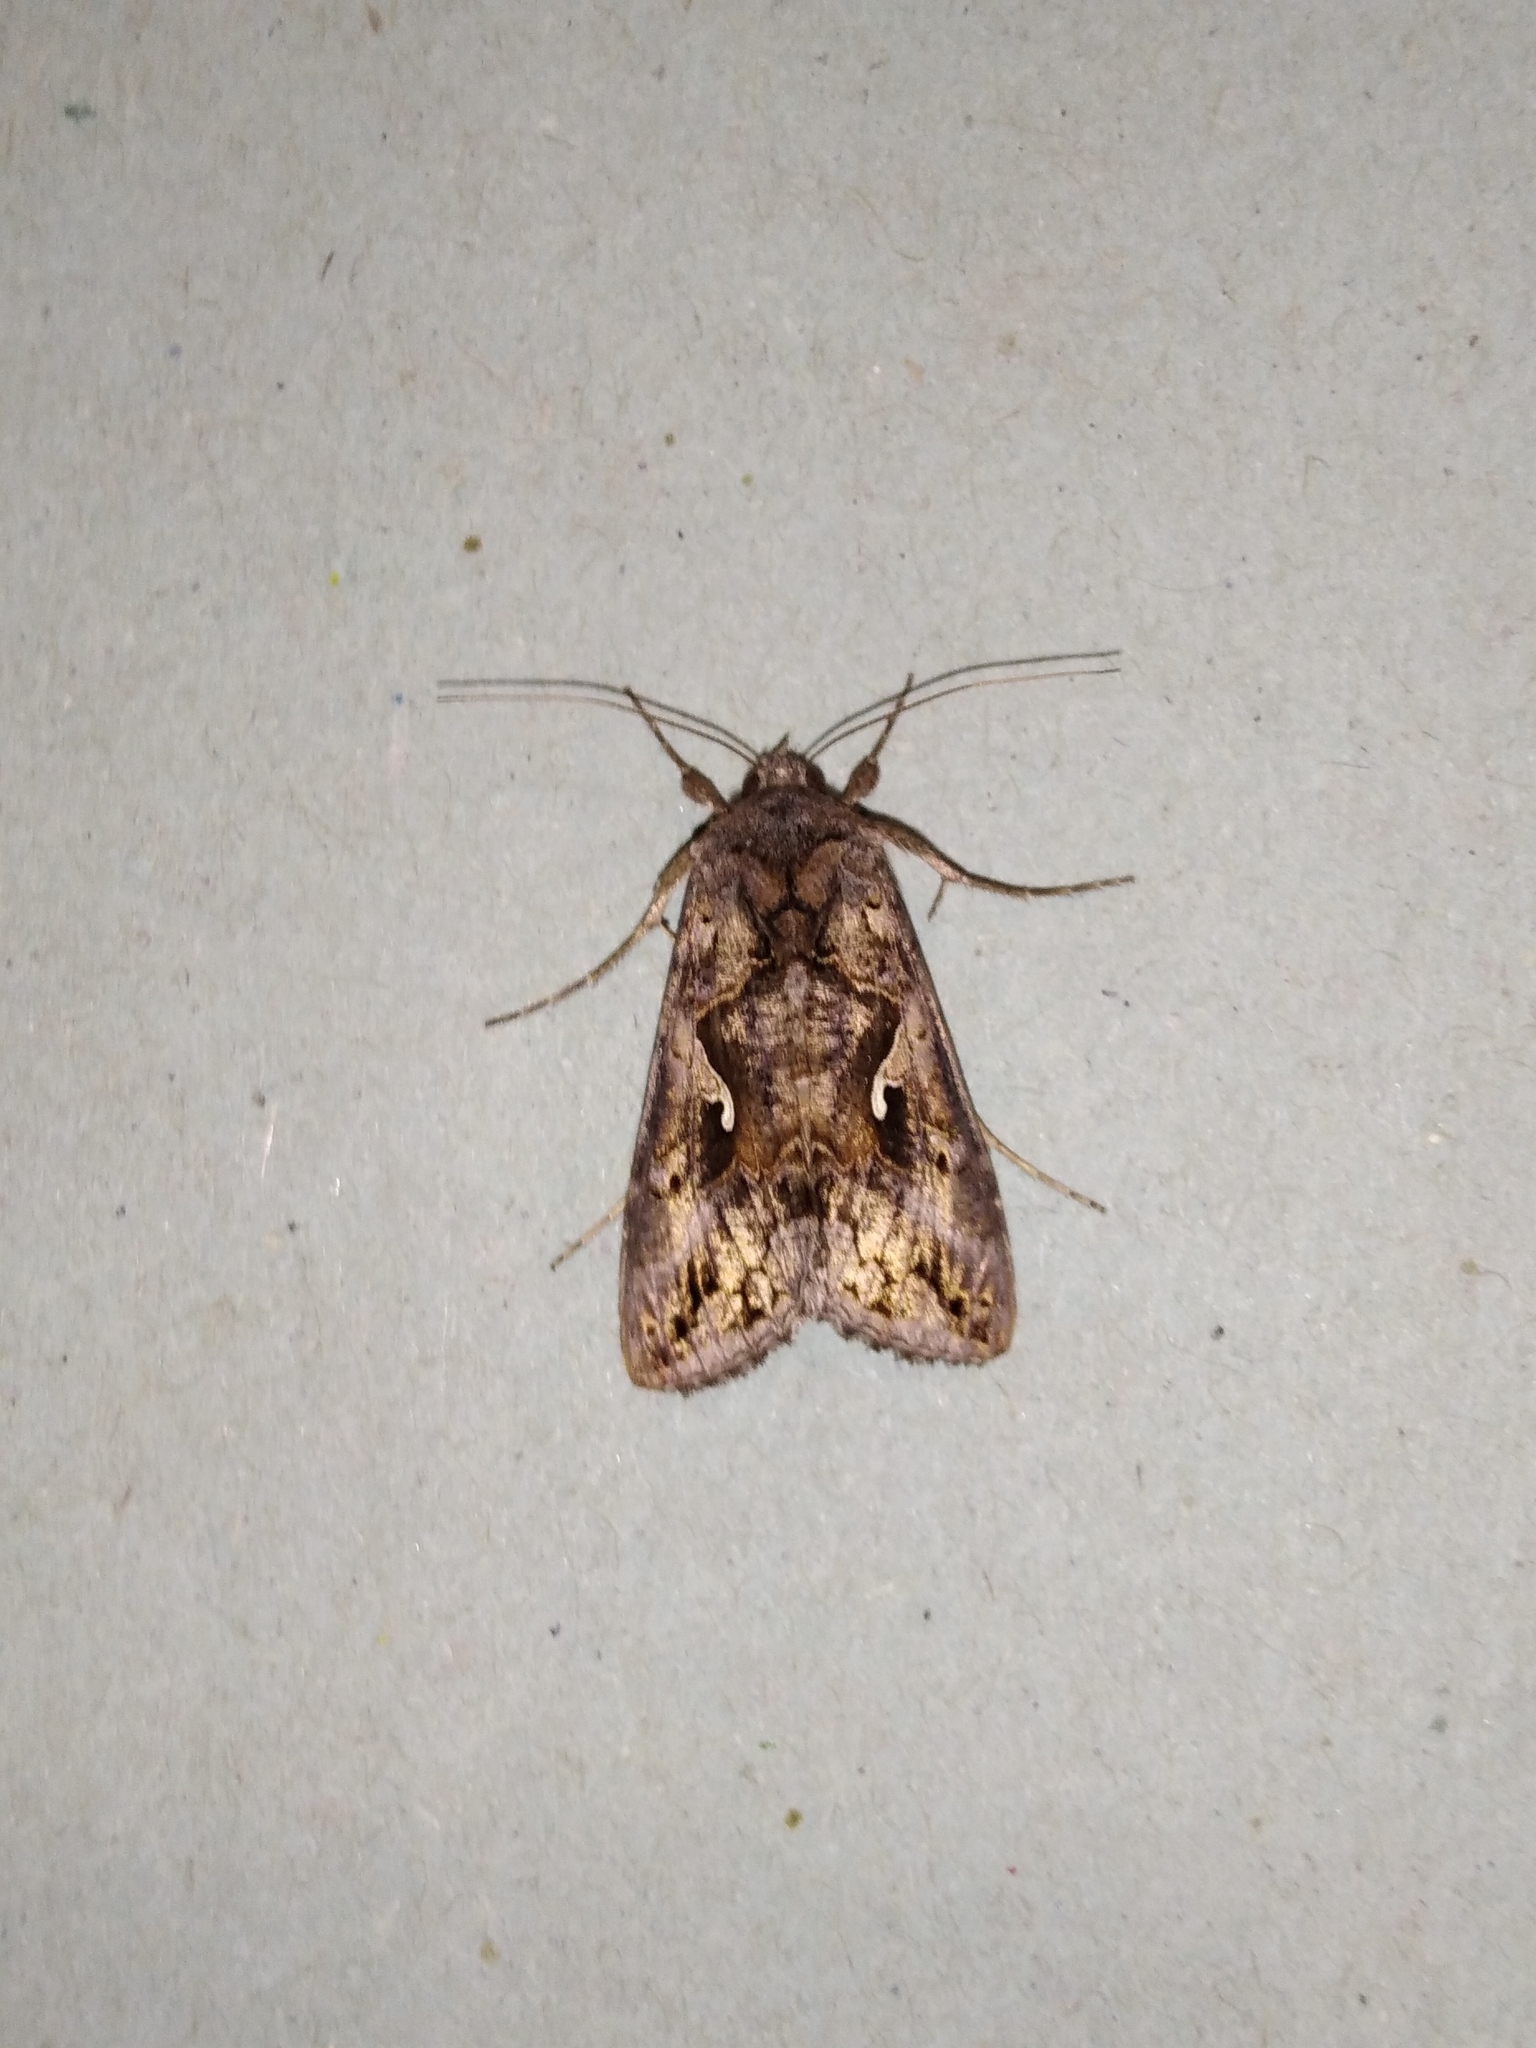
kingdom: Animalia
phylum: Arthropoda
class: Insecta
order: Lepidoptera
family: Noctuidae
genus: Autographa
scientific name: Autographa gamma
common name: Silver y
